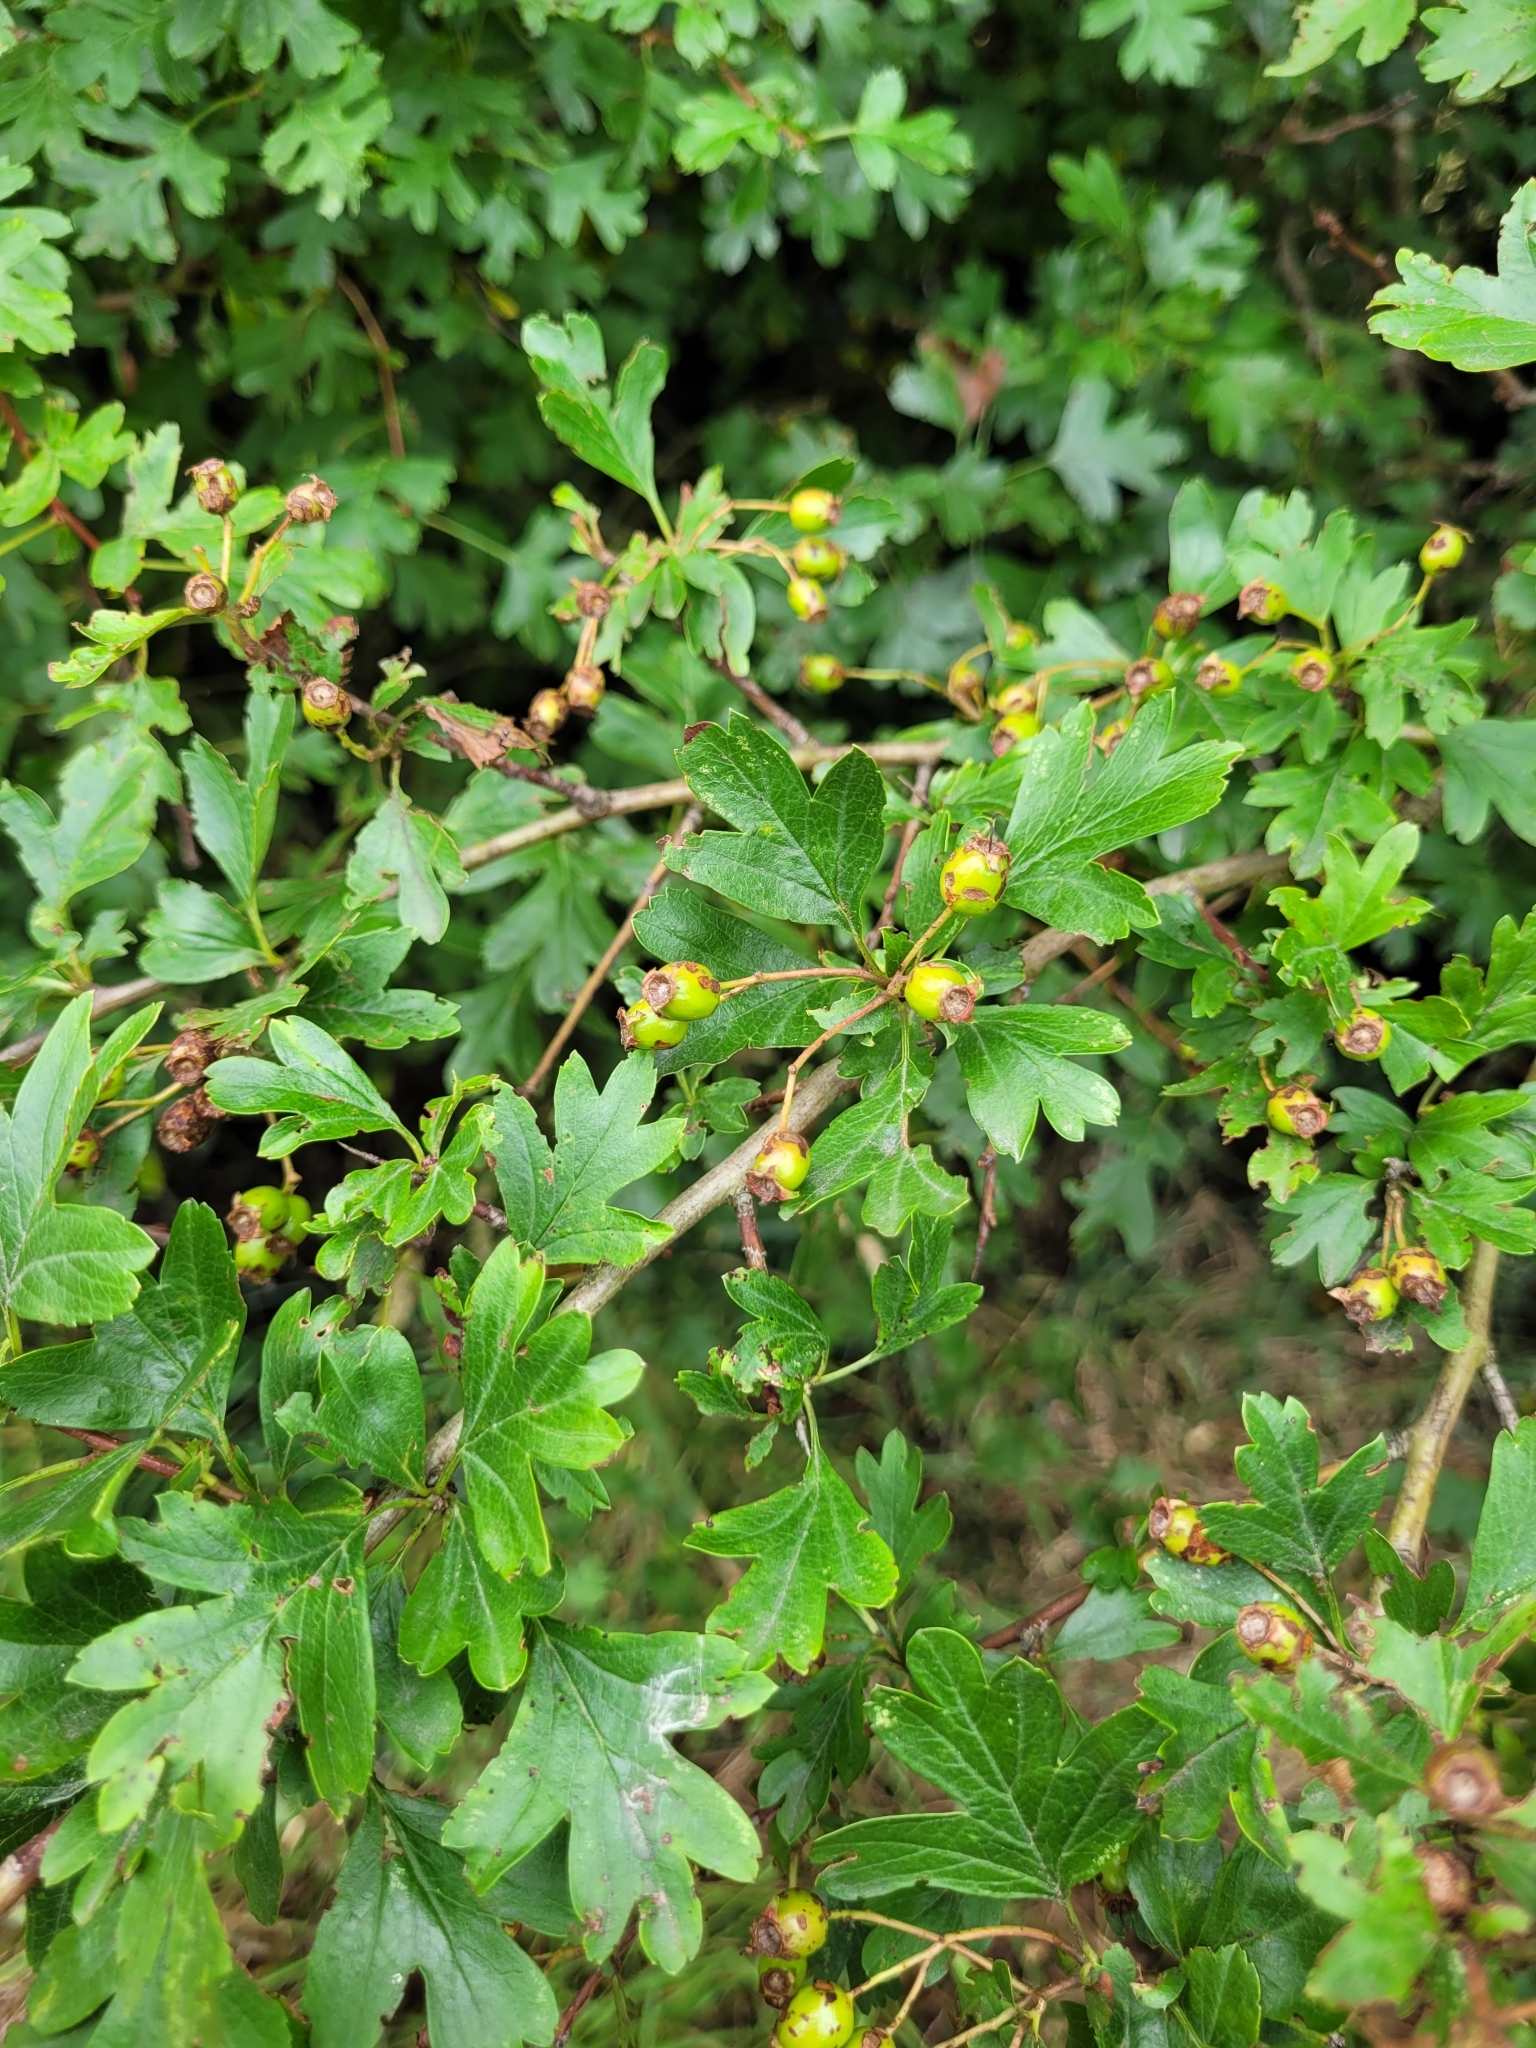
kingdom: Plantae
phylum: Tracheophyta
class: Magnoliopsida
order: Rosales
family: Rosaceae
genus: Crataegus
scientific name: Crataegus monogyna
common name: Hawthorn
